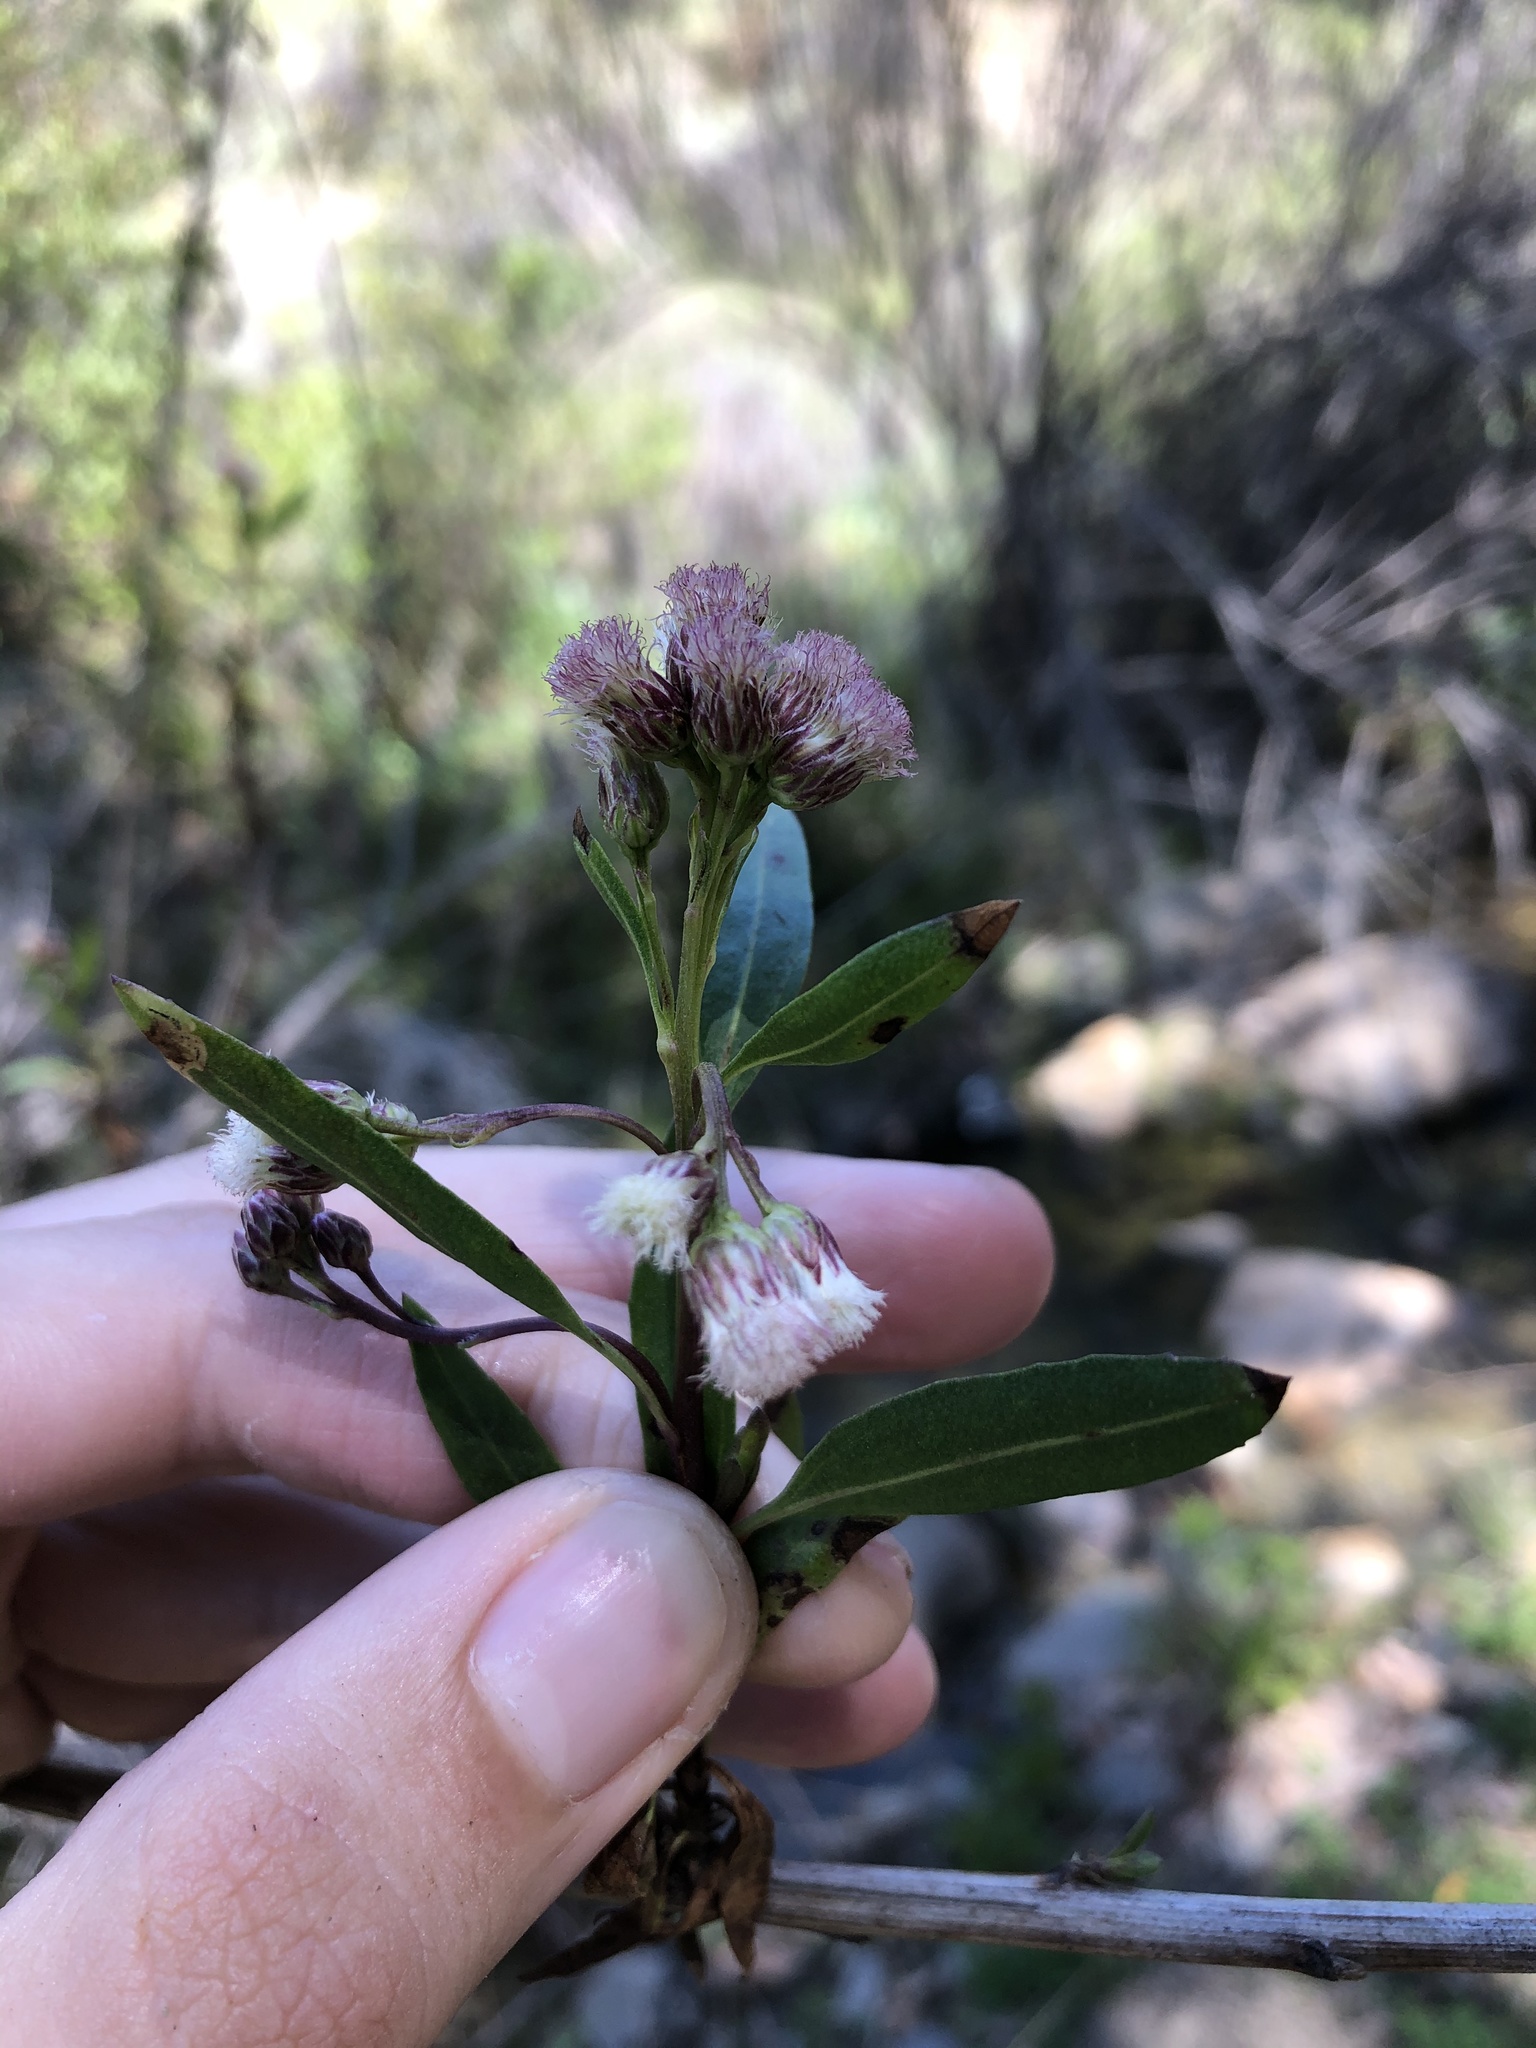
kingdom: Plantae
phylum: Tracheophyta
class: Magnoliopsida
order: Asterales
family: Asteraceae
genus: Baccharis
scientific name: Baccharis salicifolia
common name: Sticky baccharis
